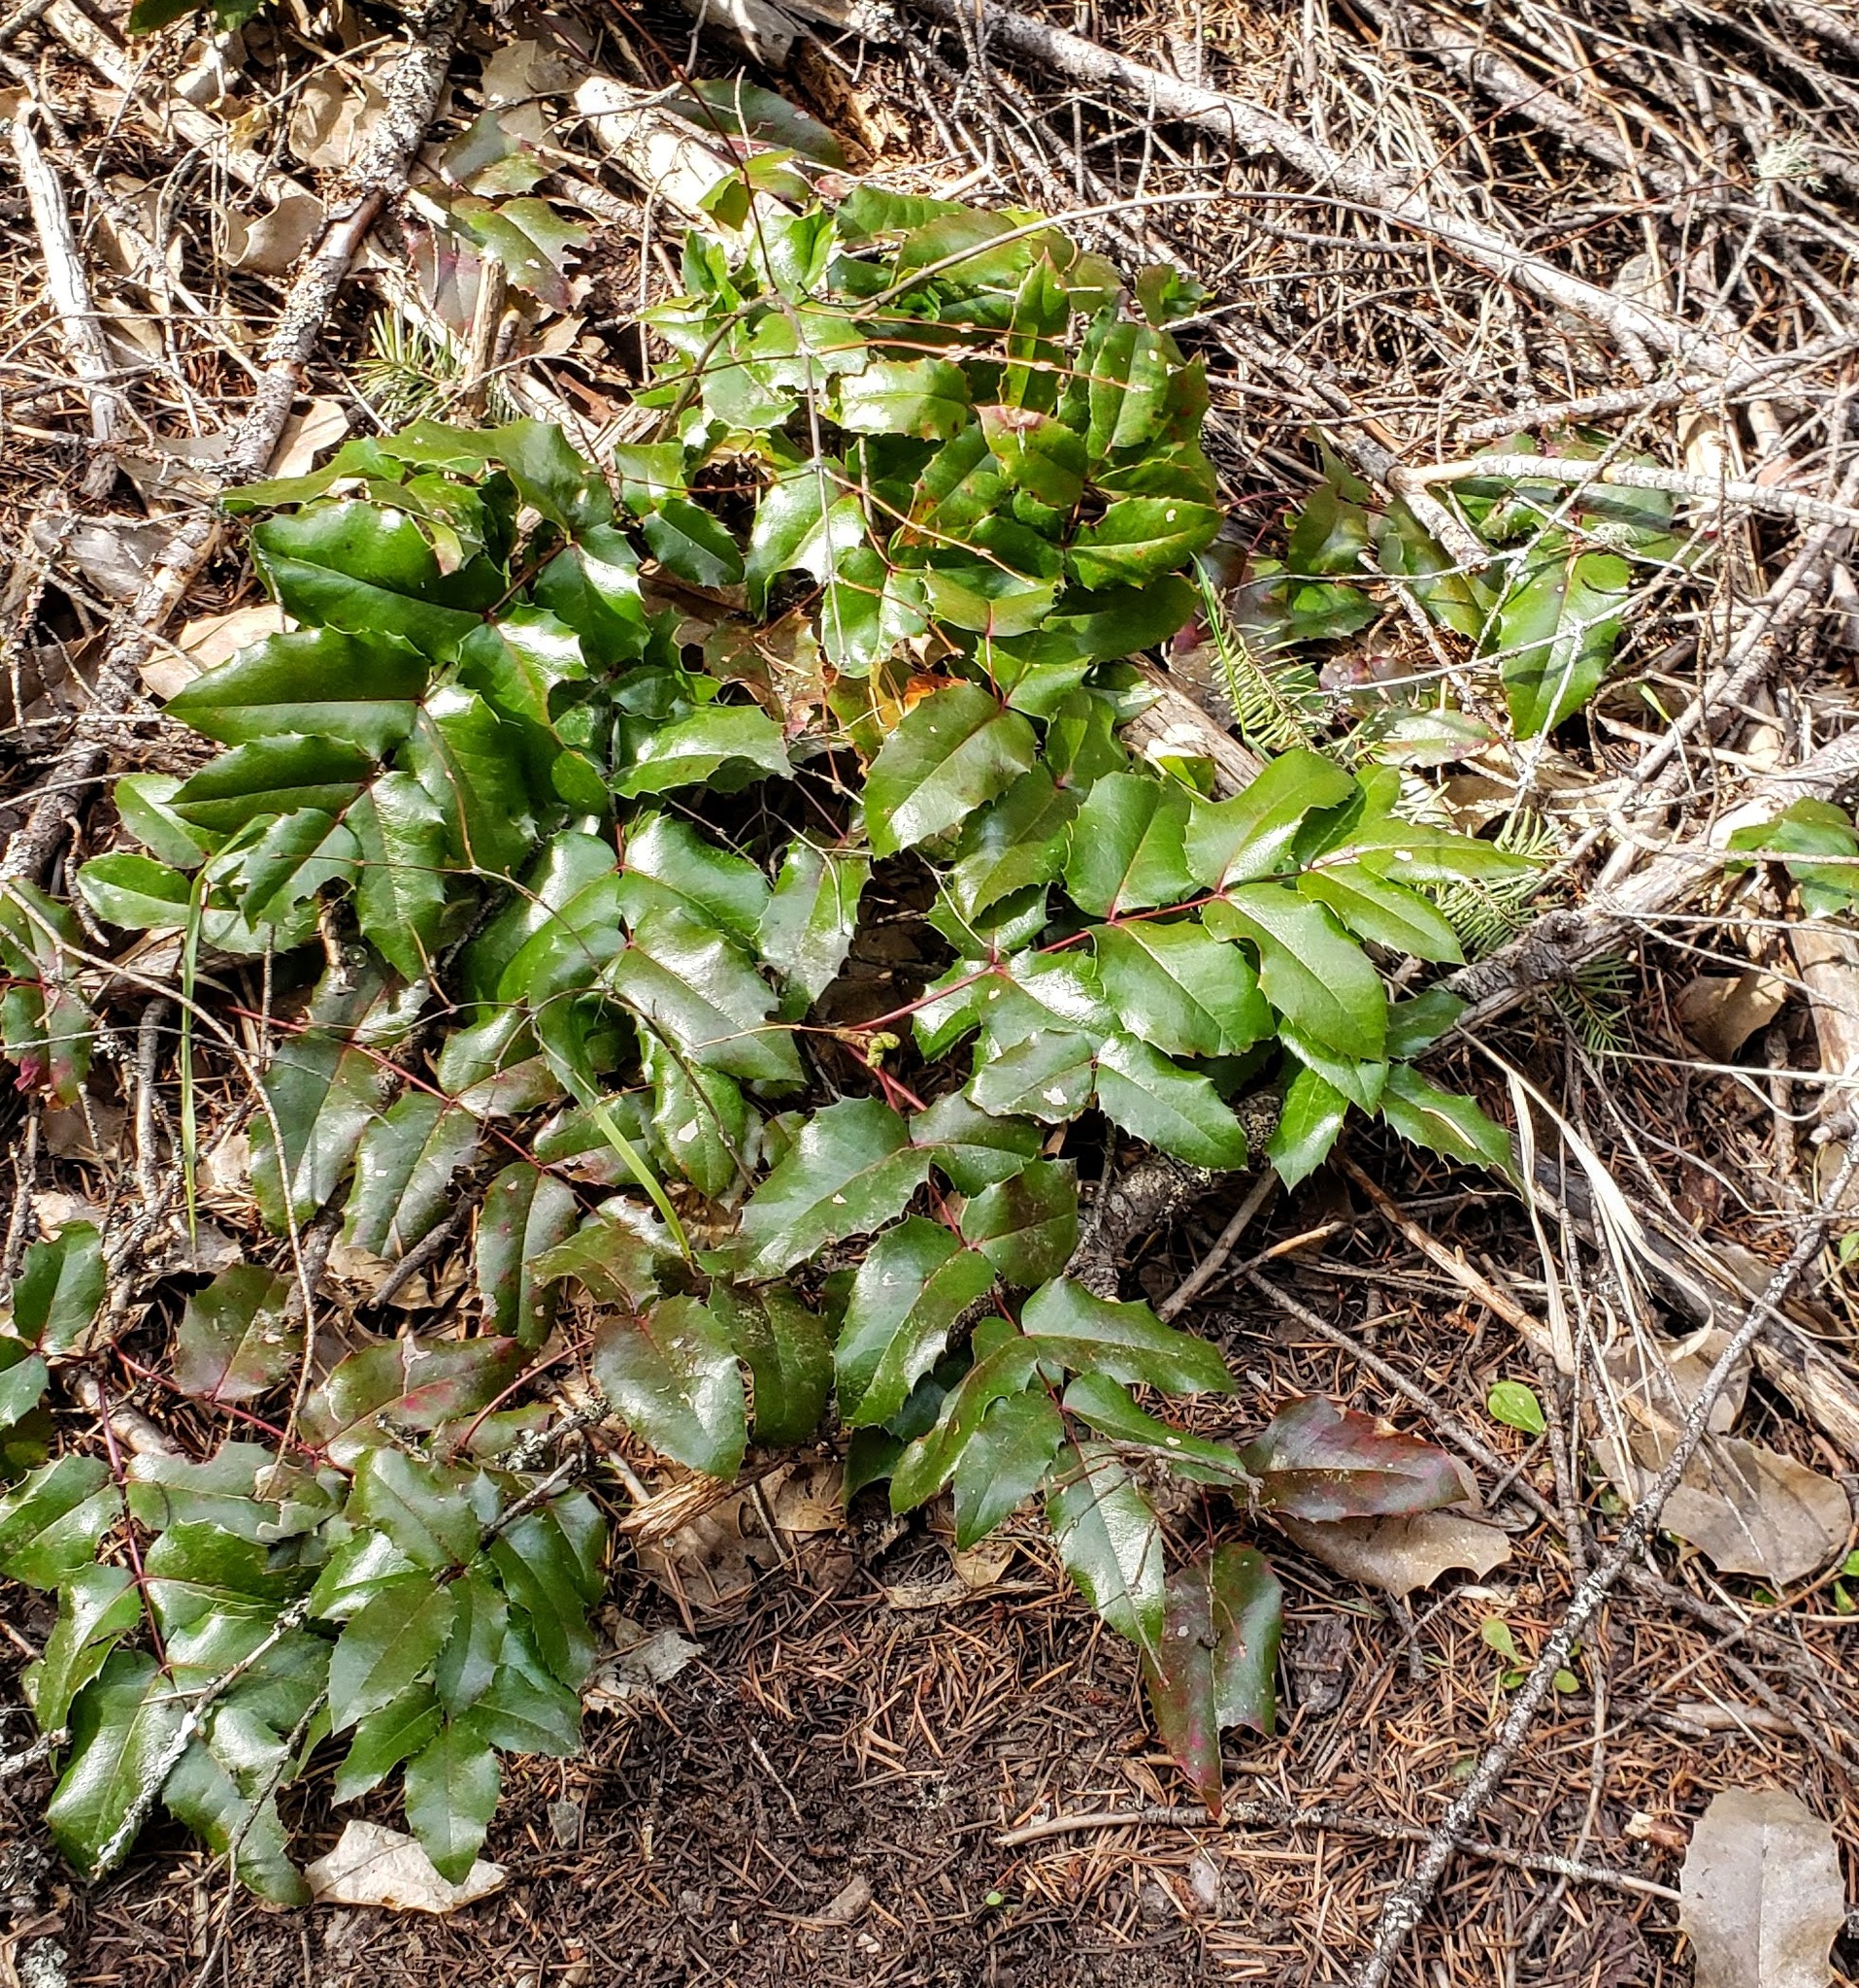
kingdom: Plantae
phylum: Tracheophyta
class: Magnoliopsida
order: Ranunculales
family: Berberidaceae
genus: Mahonia
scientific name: Mahonia aquifolium
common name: Oregon-grape
